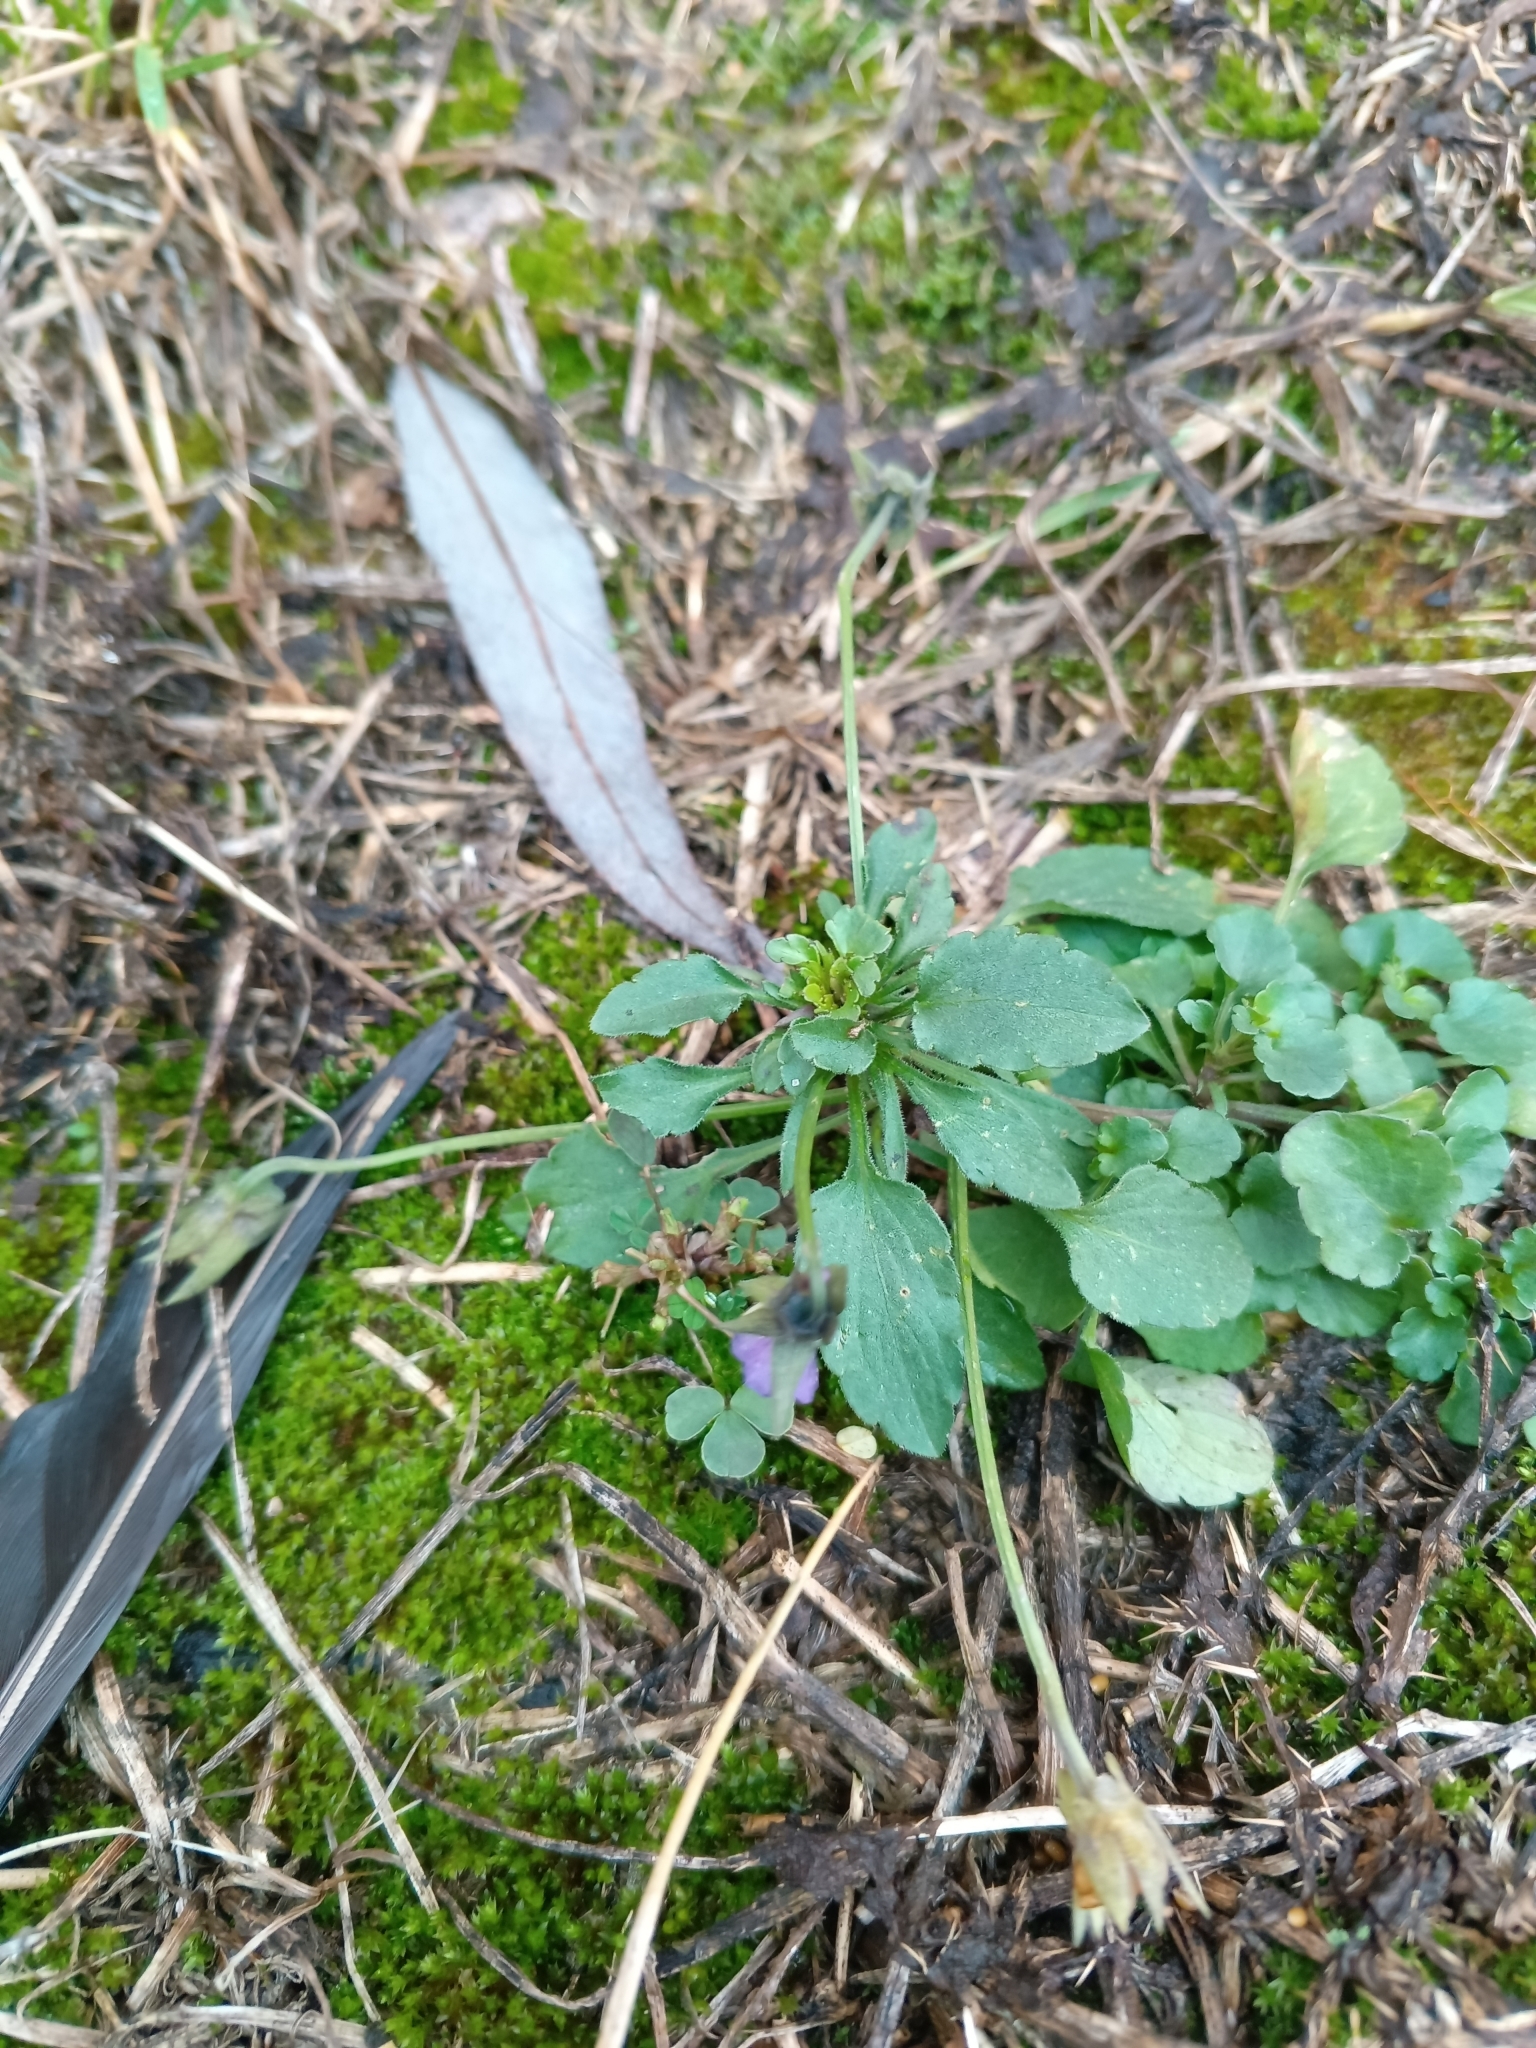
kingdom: Plantae
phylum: Tracheophyta
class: Magnoliopsida
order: Malpighiales
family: Violaceae
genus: Viola
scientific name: Viola arvensis
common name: Field pansy
